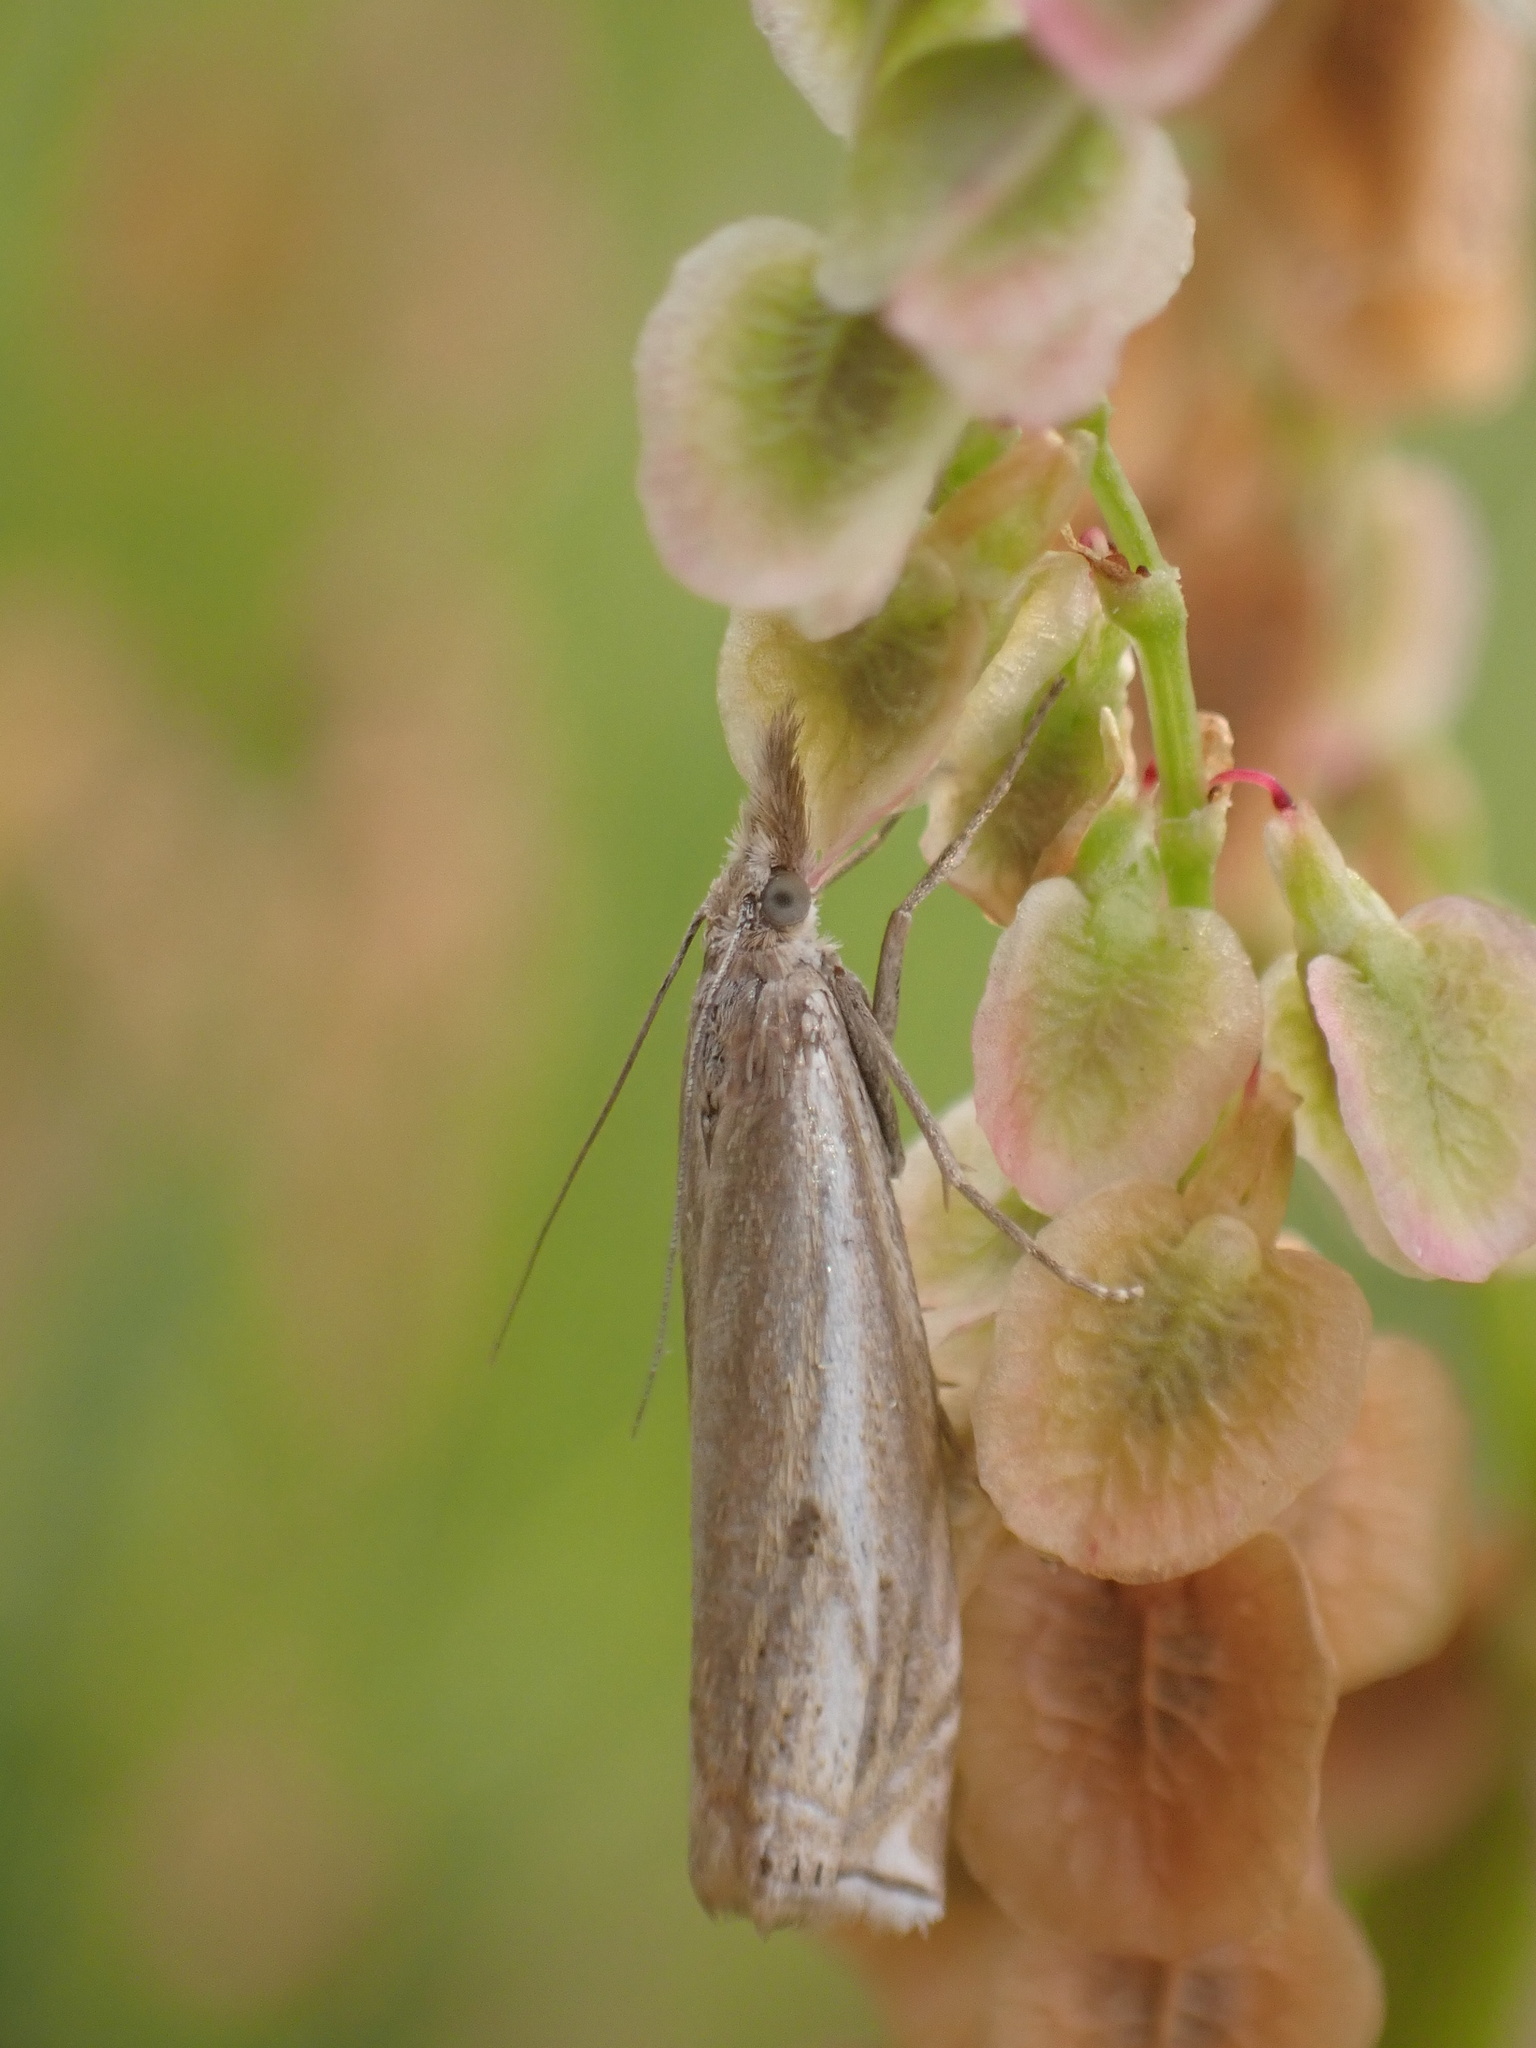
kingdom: Animalia
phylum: Arthropoda
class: Insecta
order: Lepidoptera
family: Crambidae
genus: Chrysoteuchia
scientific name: Chrysoteuchia culmella
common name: Garden grass-veneer
